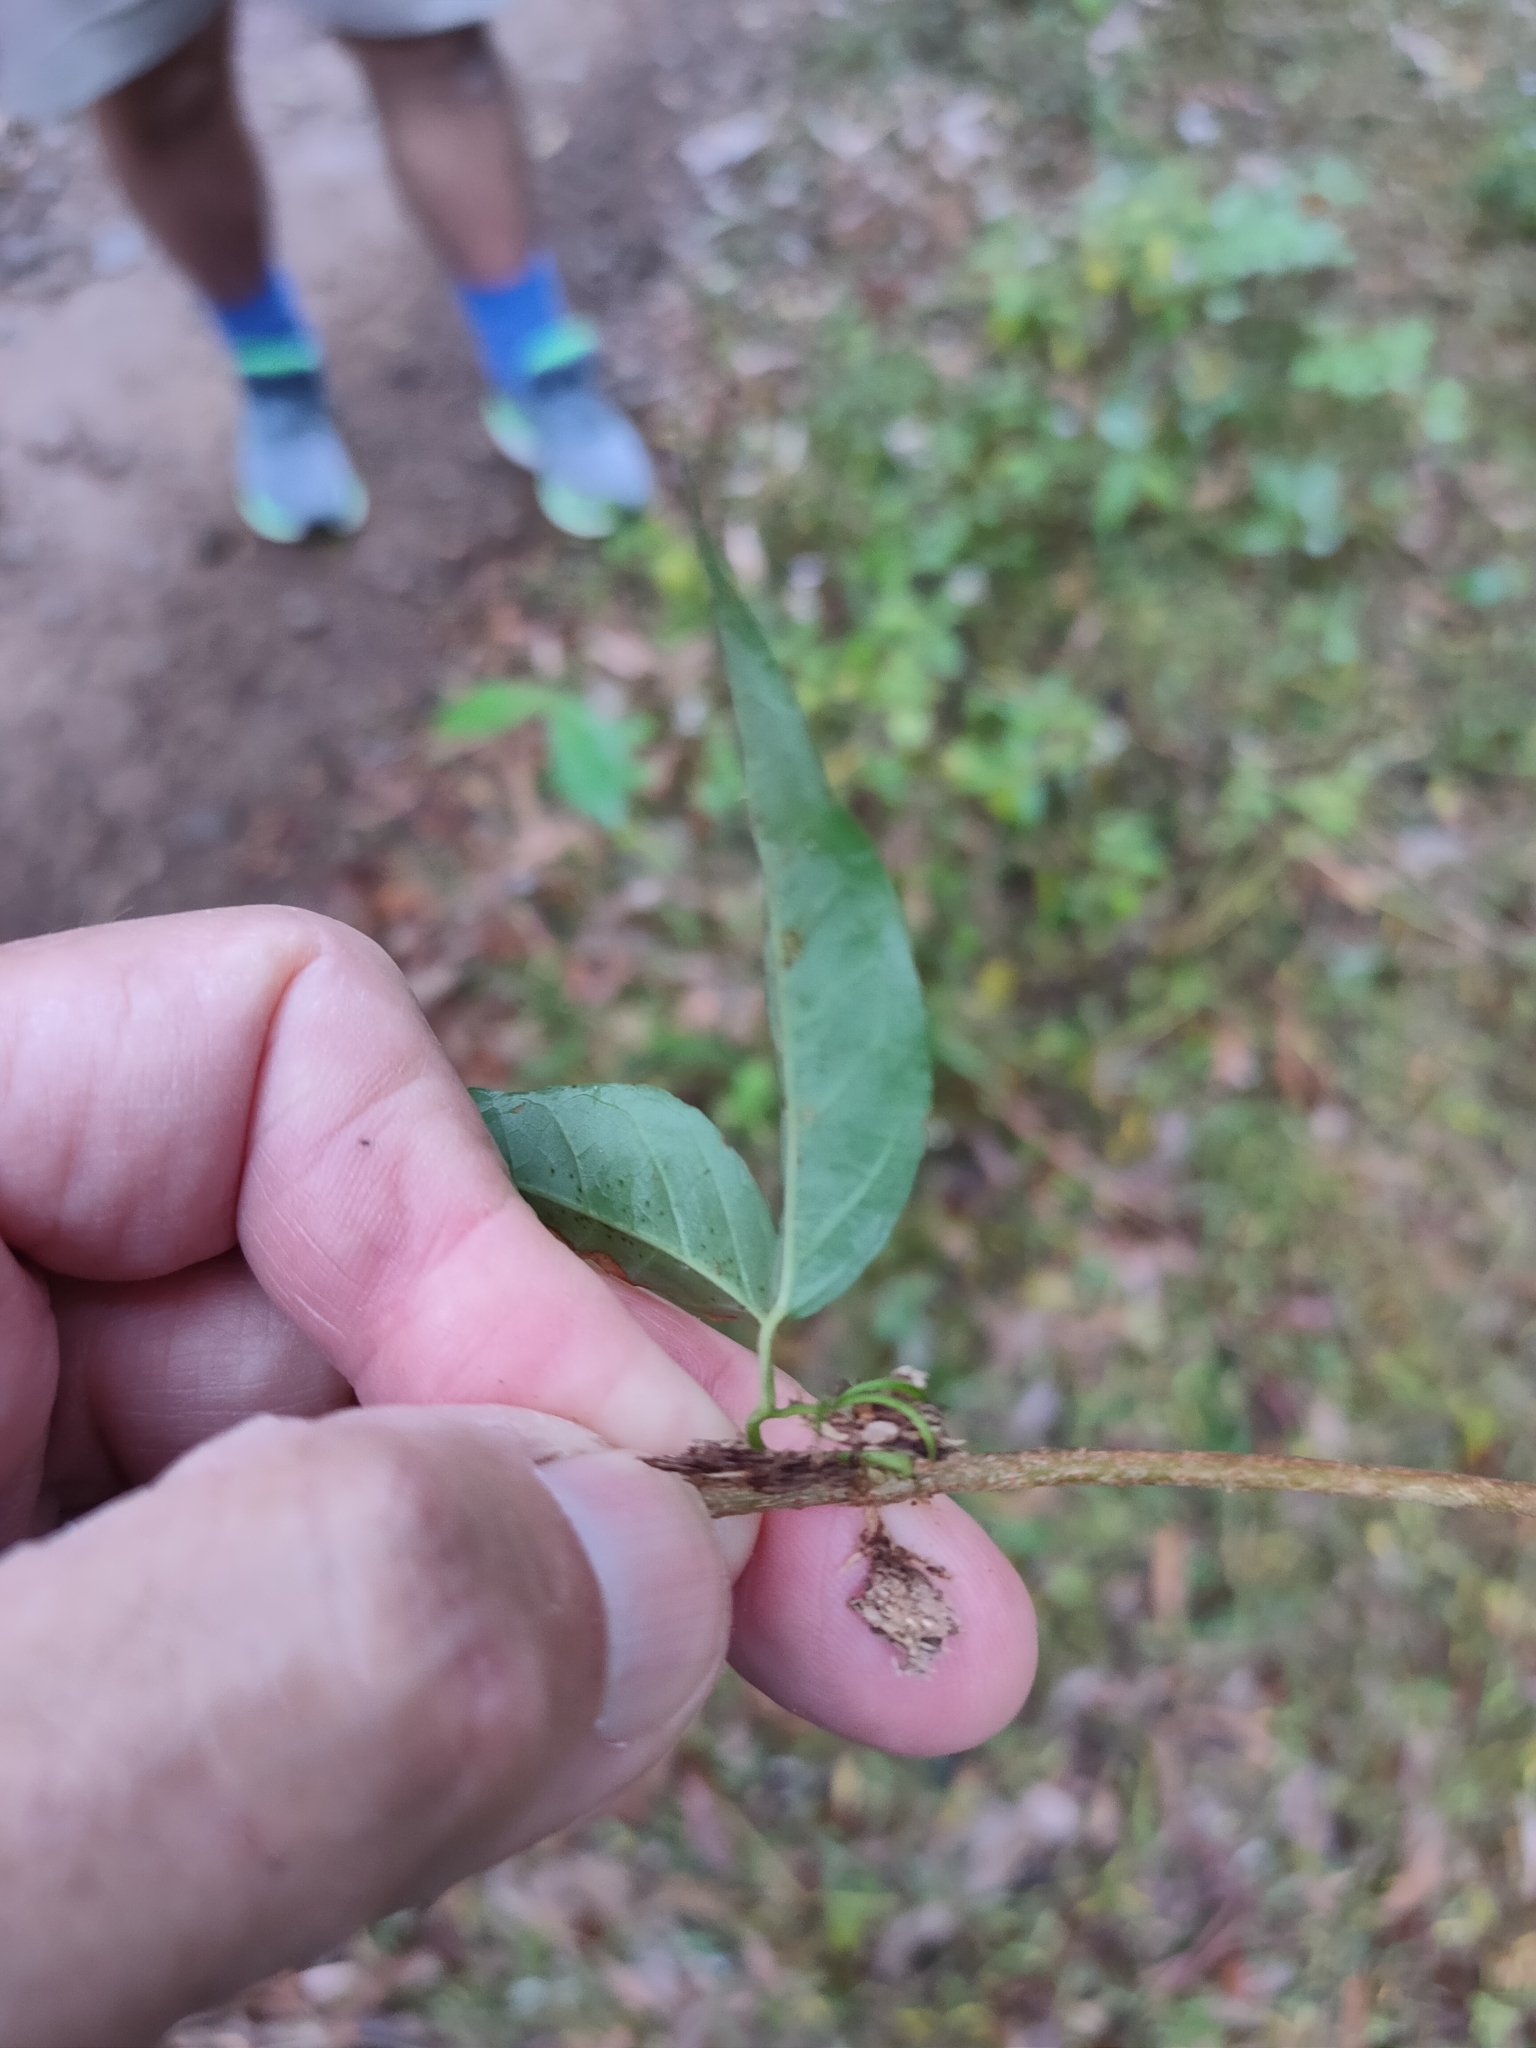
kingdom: Plantae
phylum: Tracheophyta
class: Magnoliopsida
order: Lamiales
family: Bignoniaceae
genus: Dolichandra
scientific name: Dolichandra unguis-cati
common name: Catclaw vine
